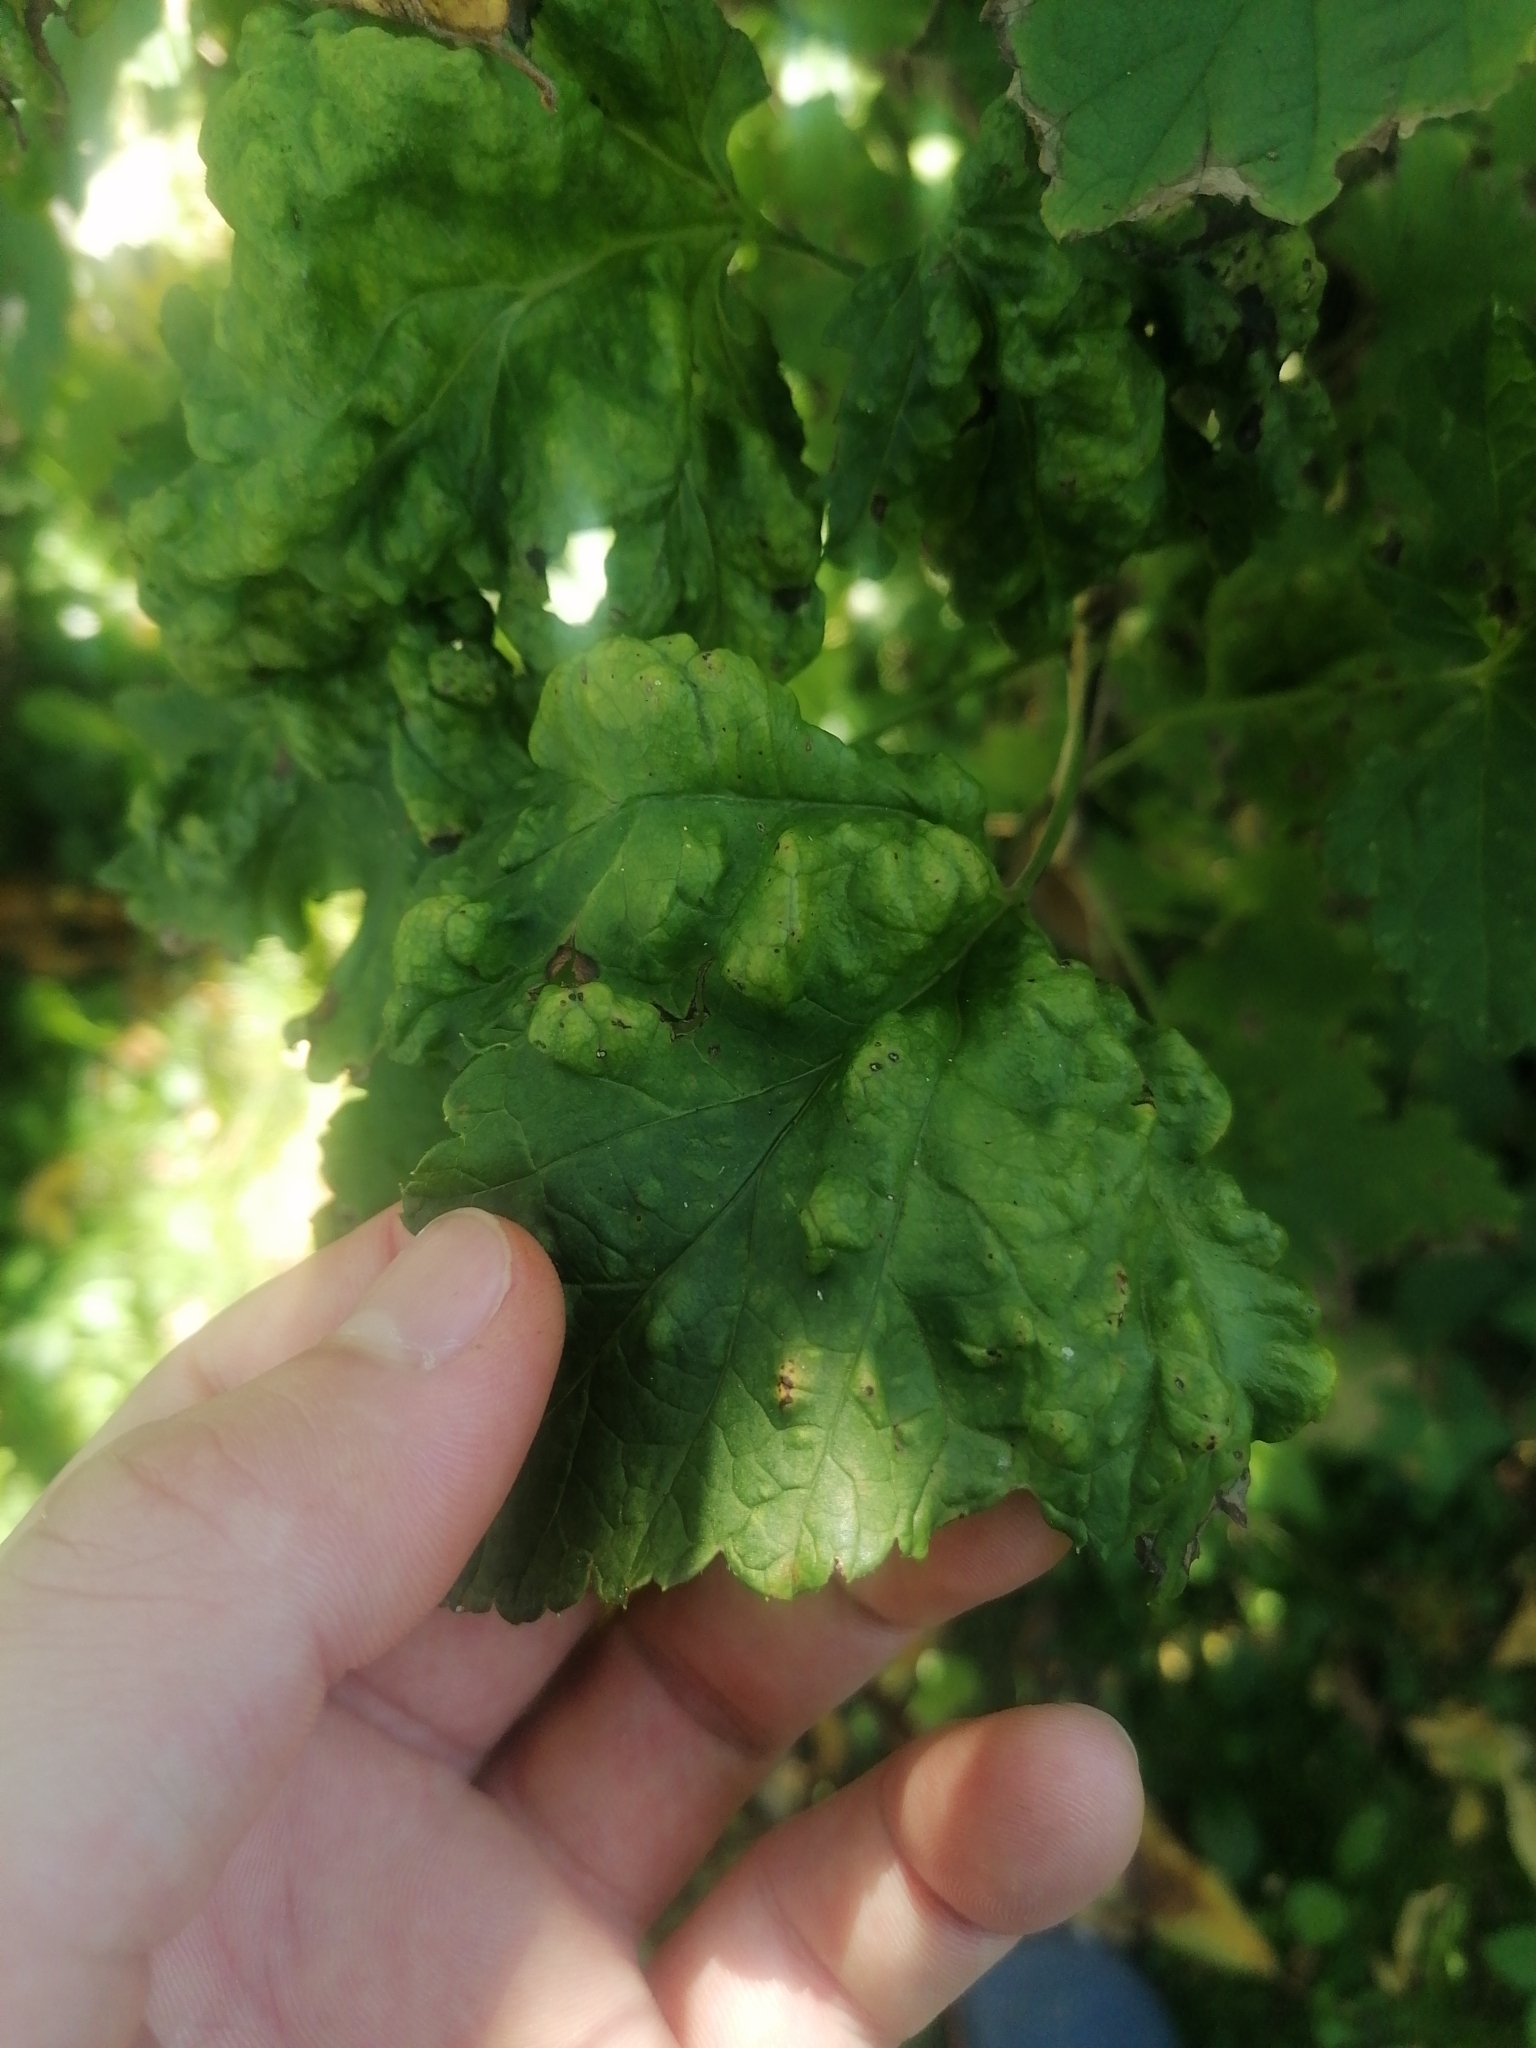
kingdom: Animalia
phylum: Arthropoda
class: Insecta
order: Hemiptera
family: Aphididae
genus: Cryptomyzus
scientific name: Cryptomyzus ribis
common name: Currant aphid
